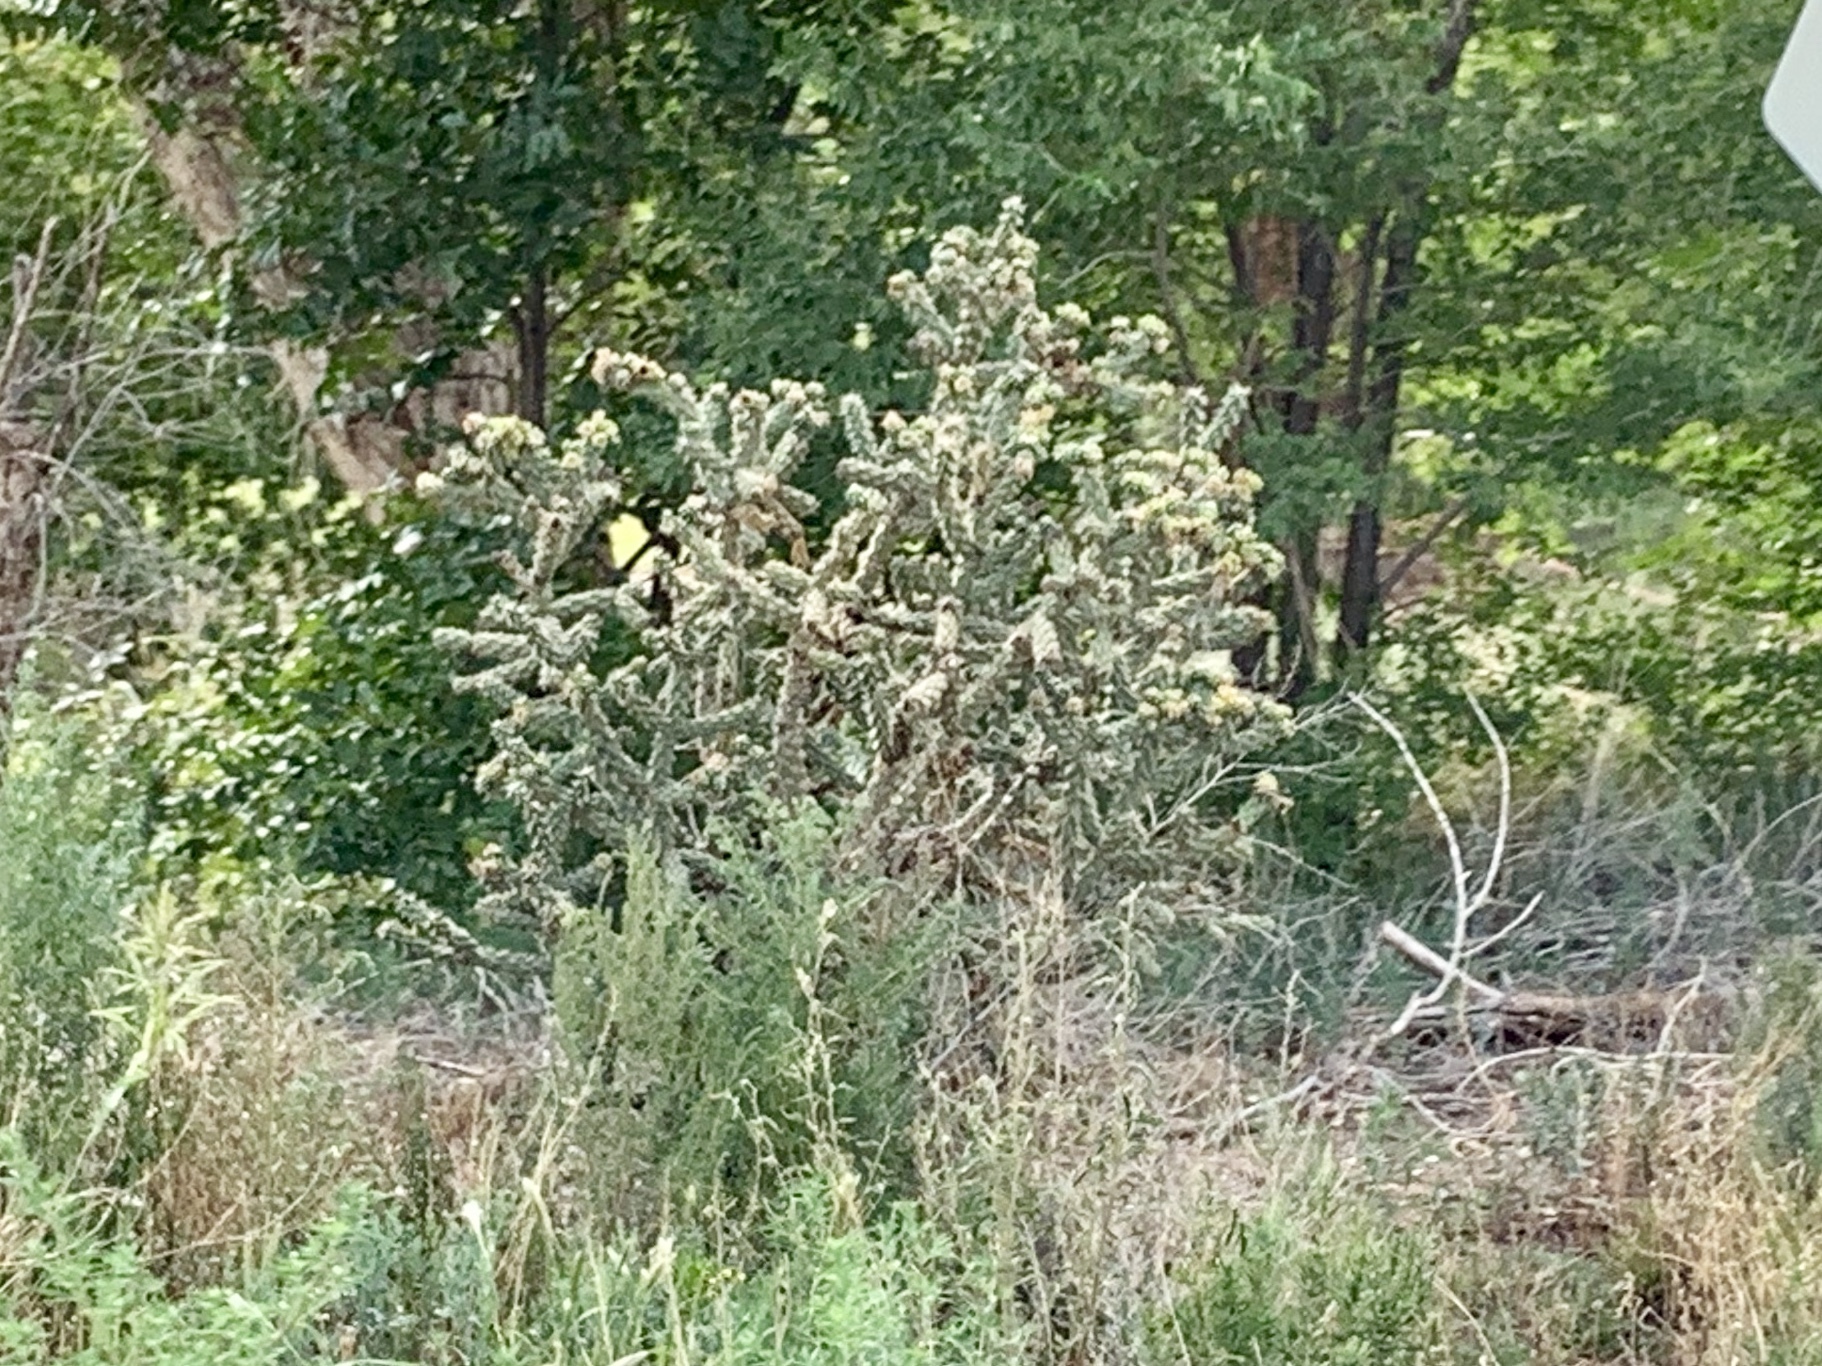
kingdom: Plantae
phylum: Tracheophyta
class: Magnoliopsida
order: Caryophyllales
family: Cactaceae
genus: Cylindropuntia
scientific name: Cylindropuntia imbricata
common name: Candelabrum cactus
